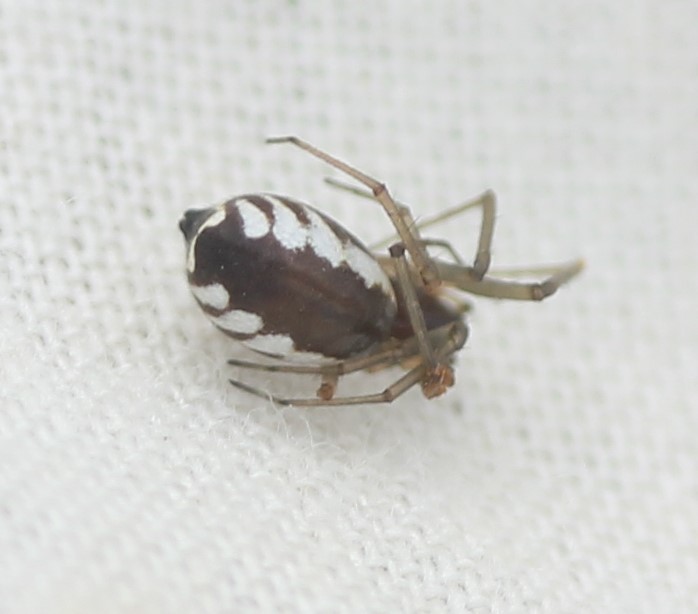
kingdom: Animalia
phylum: Arthropoda
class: Arachnida
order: Araneae
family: Linyphiidae
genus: Frontinella
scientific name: Frontinella pyramitela
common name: Bowl-and-doily spider
